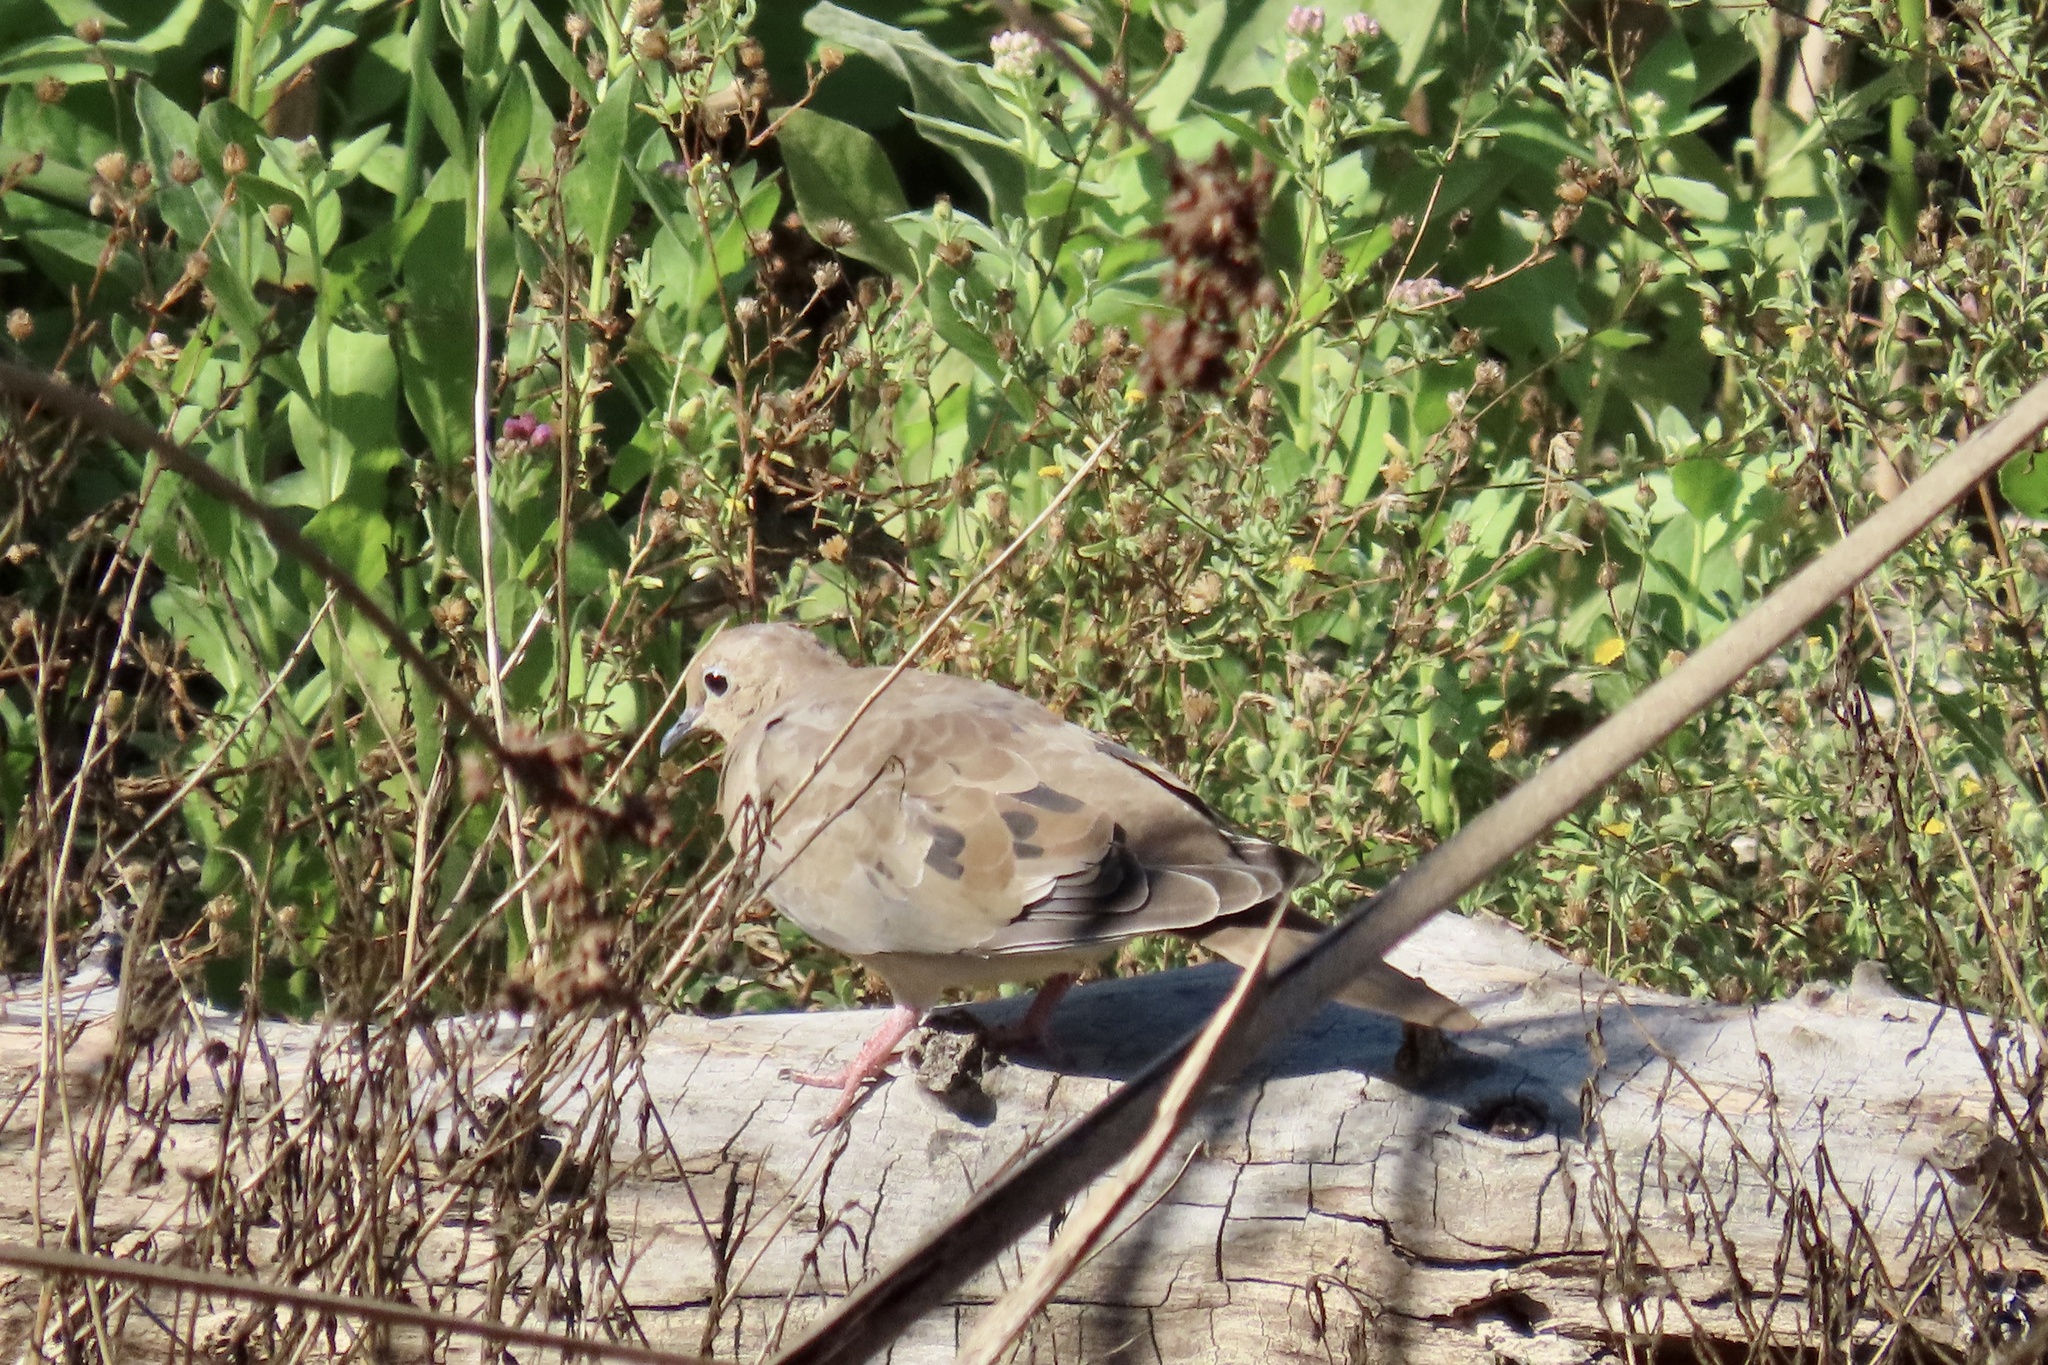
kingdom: Animalia
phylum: Chordata
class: Aves
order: Columbiformes
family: Columbidae
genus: Zenaida
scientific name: Zenaida macroura
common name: Mourning dove
